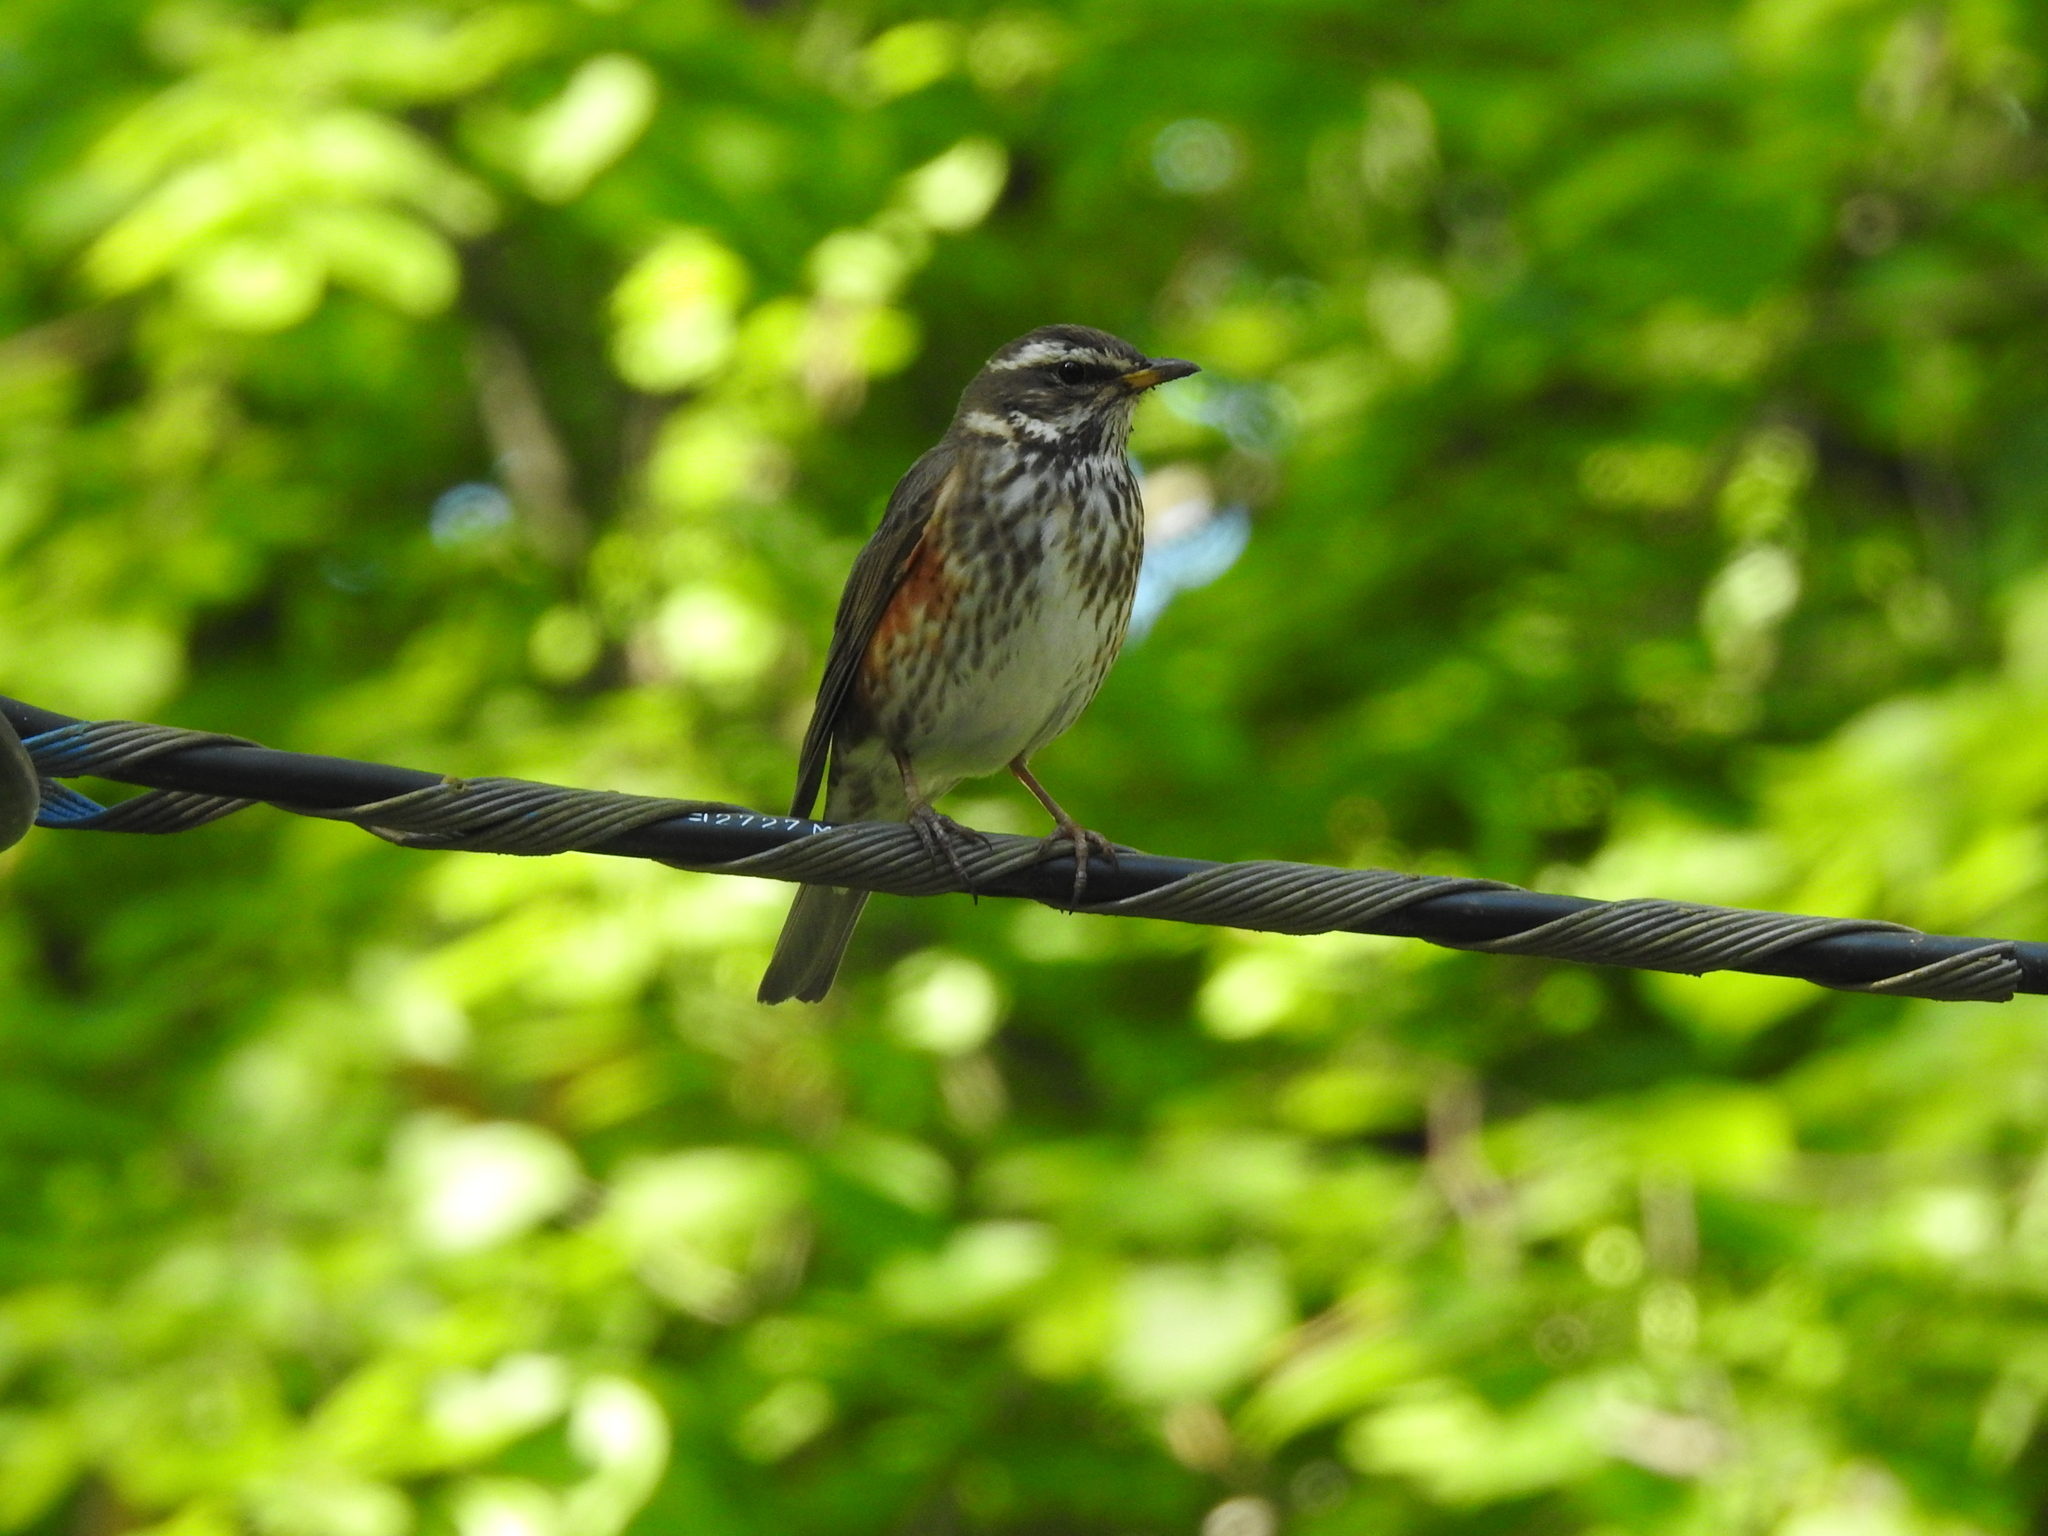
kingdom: Animalia
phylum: Chordata
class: Aves
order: Passeriformes
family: Turdidae
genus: Turdus
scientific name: Turdus iliacus
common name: Redwing
